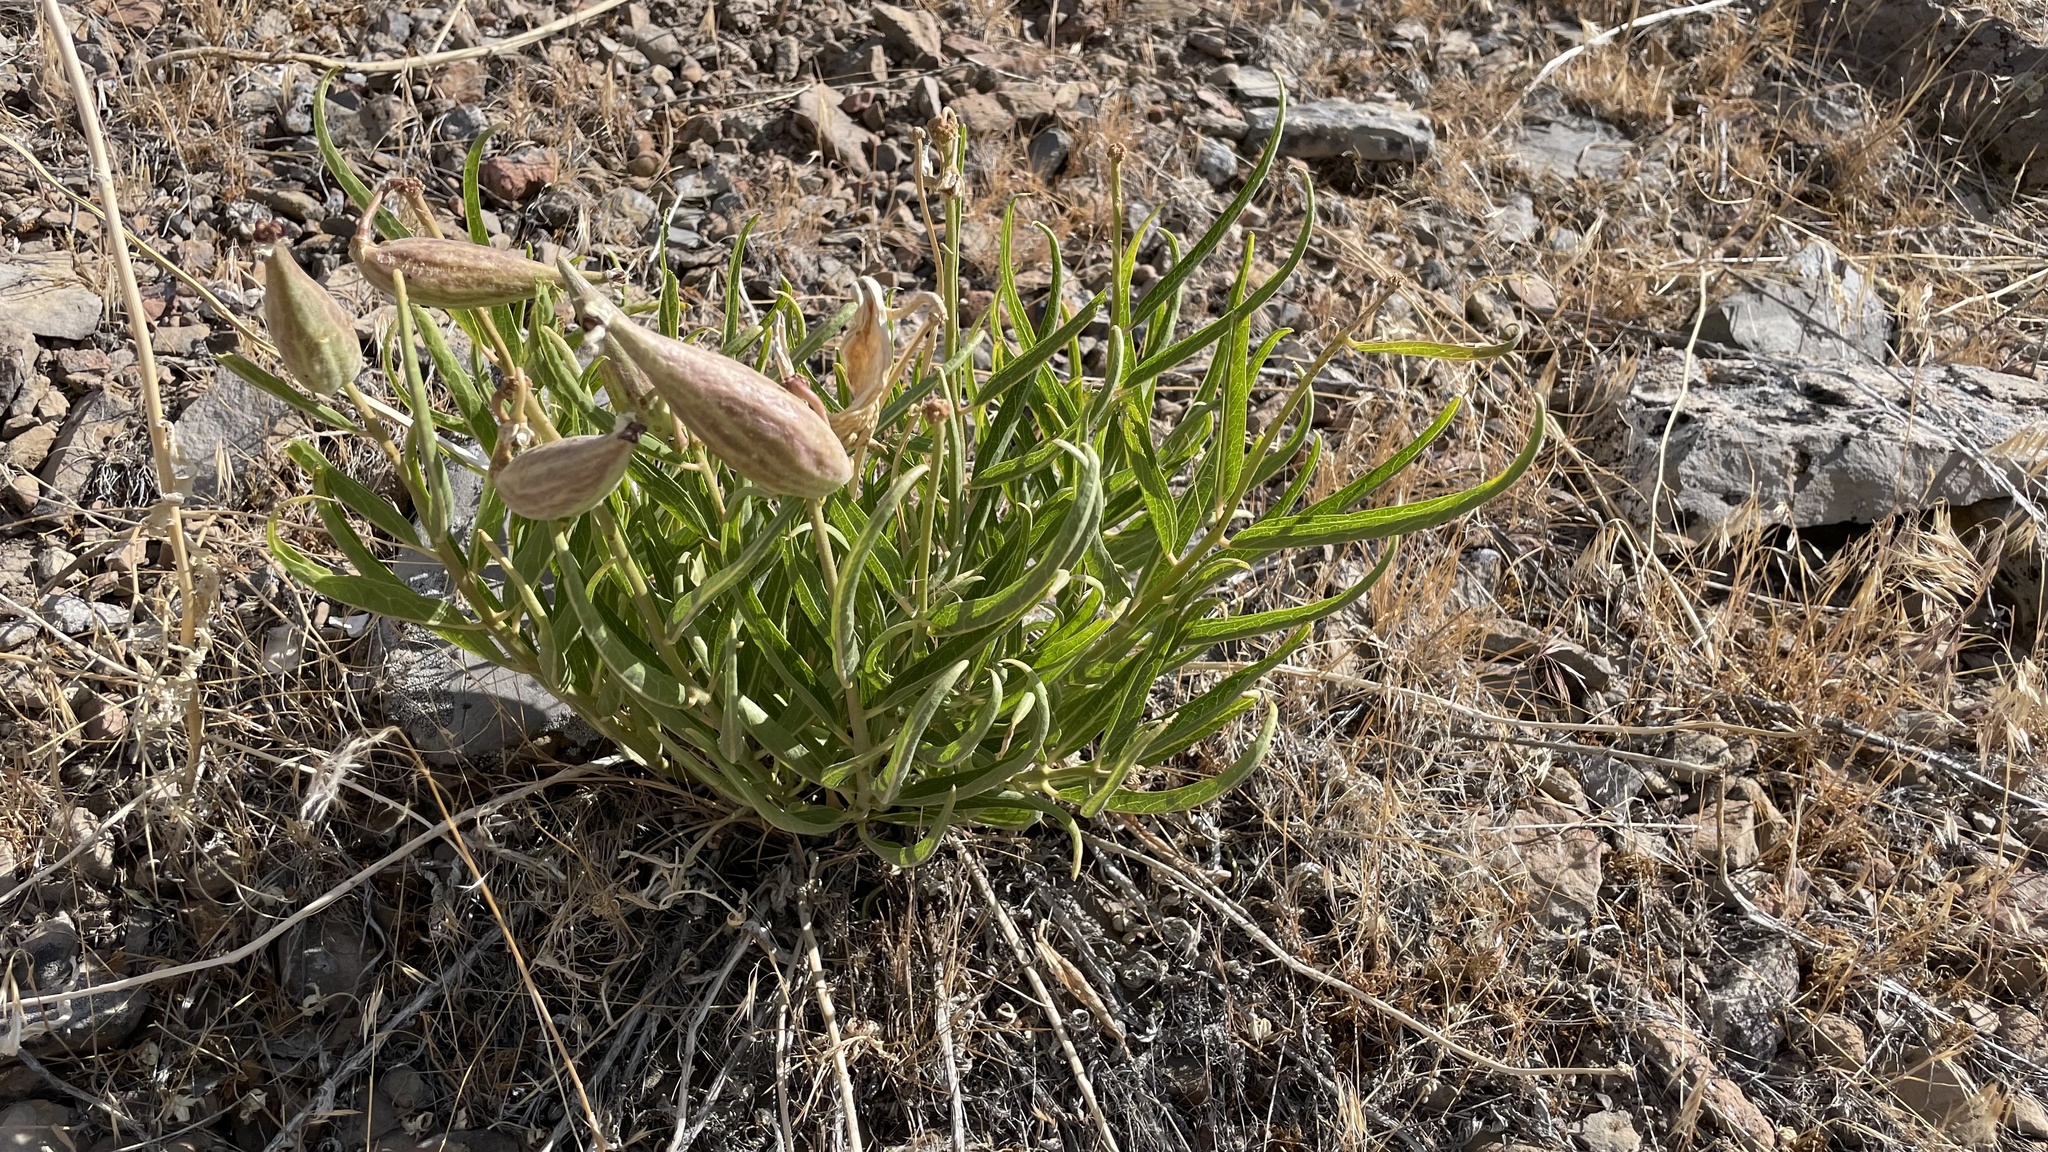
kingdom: Plantae
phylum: Tracheophyta
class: Magnoliopsida
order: Gentianales
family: Apocynaceae
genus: Asclepias
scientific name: Asclepias asperula
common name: Antelope horns
